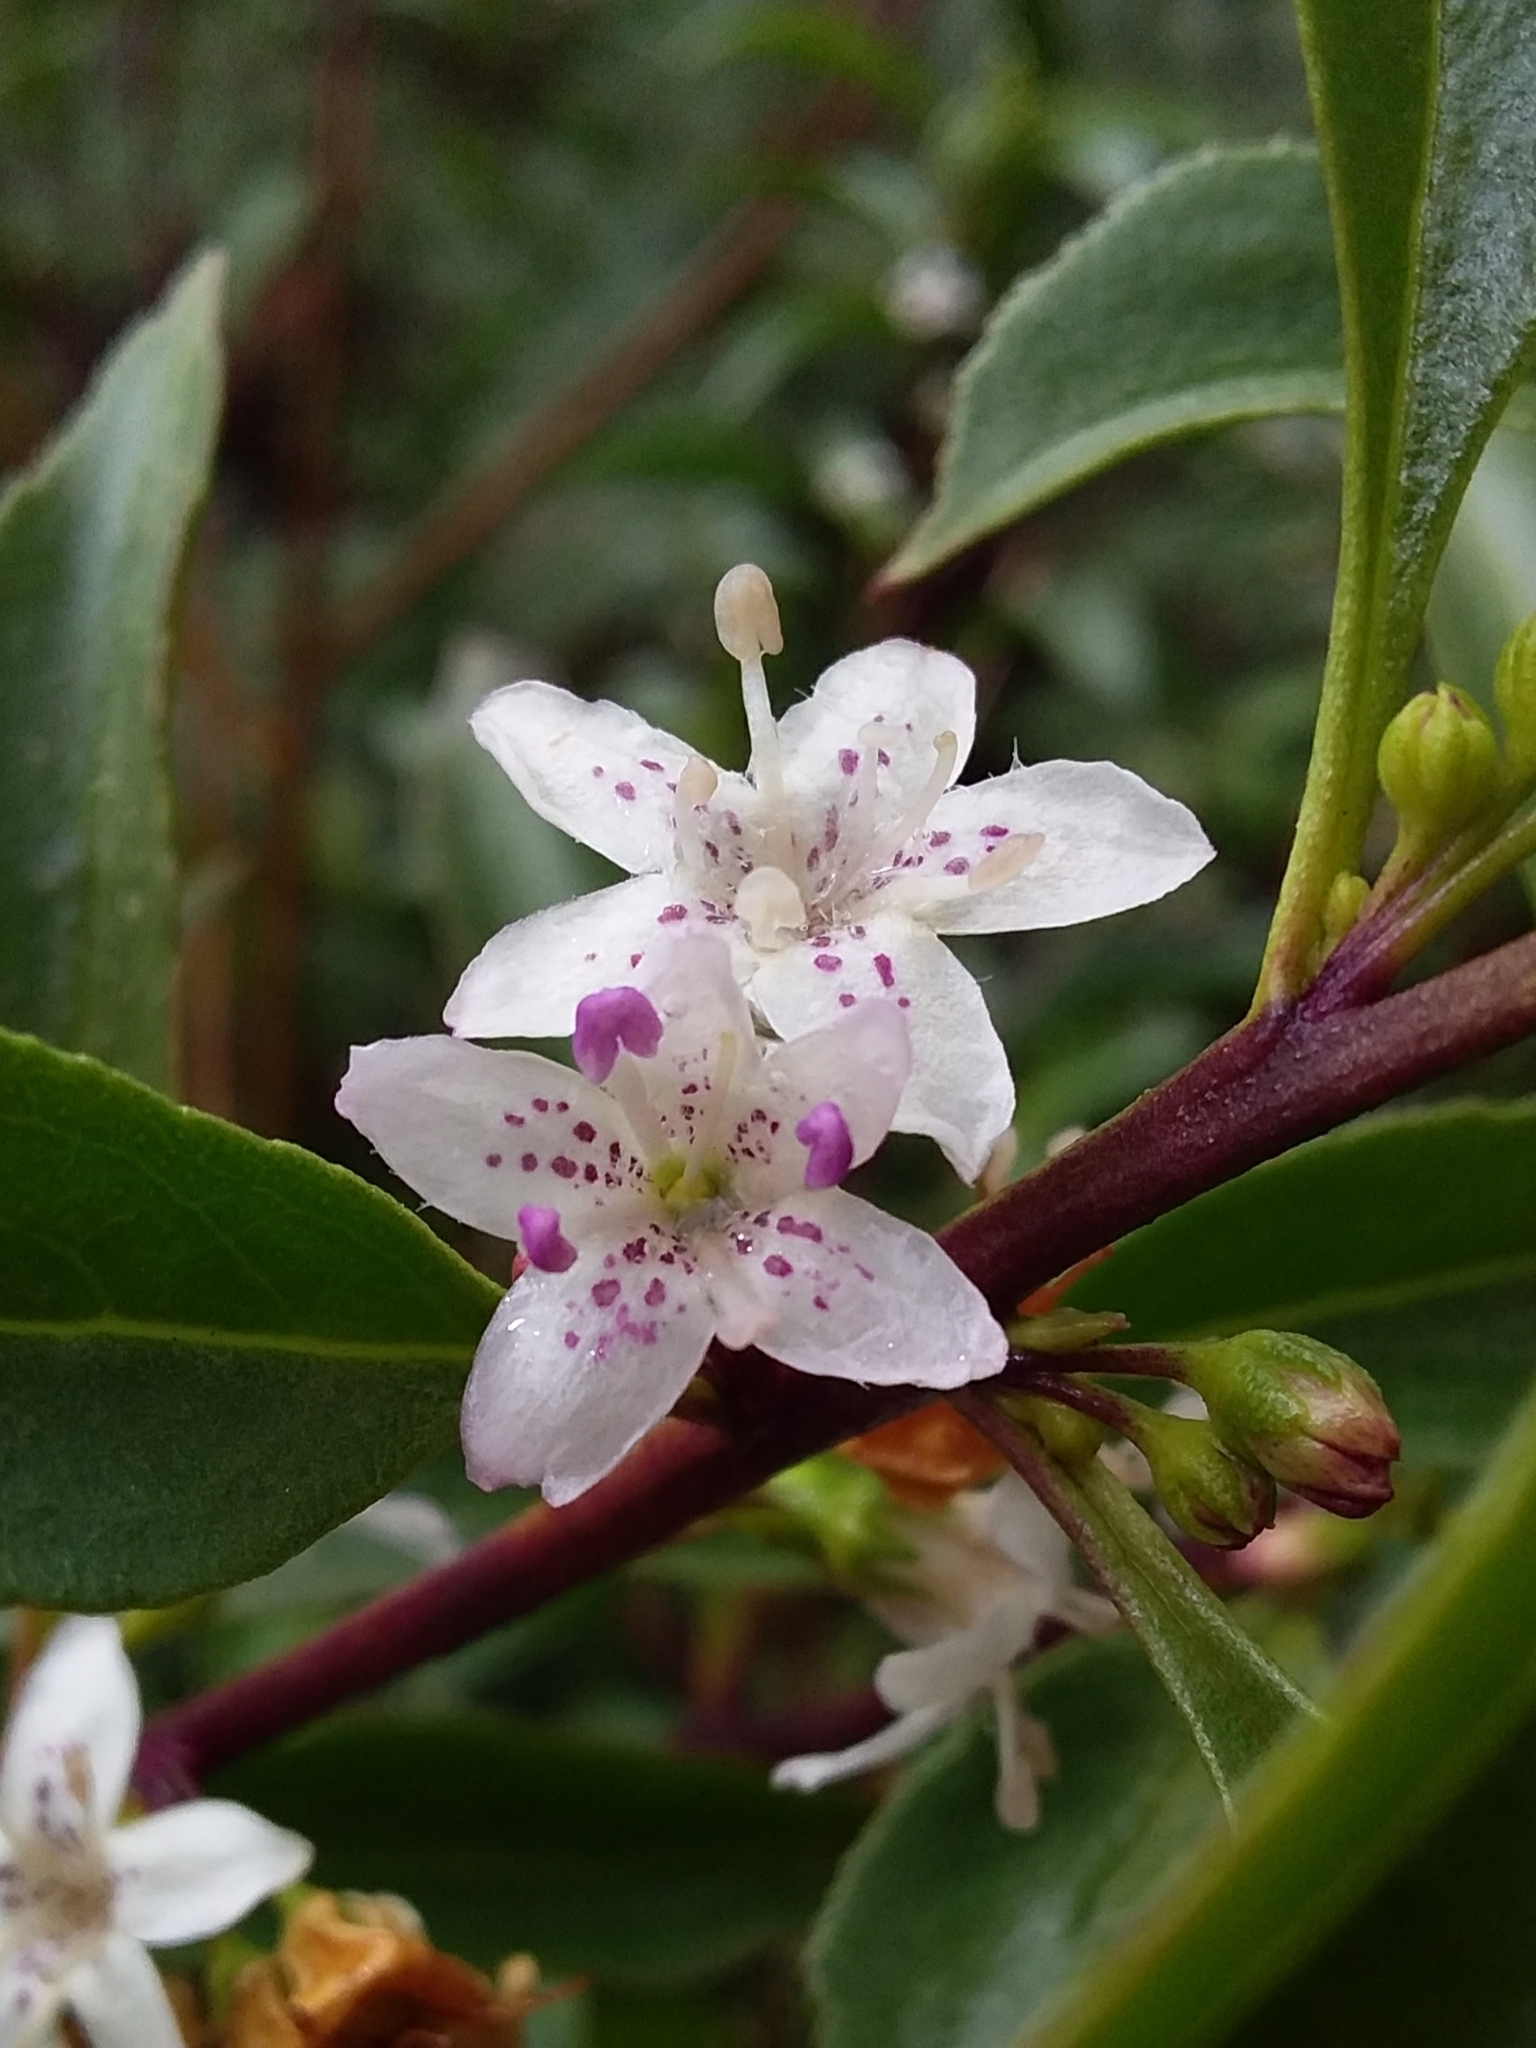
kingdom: Plantae
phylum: Tracheophyta
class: Magnoliopsida
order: Lamiales
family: Scrophulariaceae
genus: Myoporum
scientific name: Myoporum petiolatum
